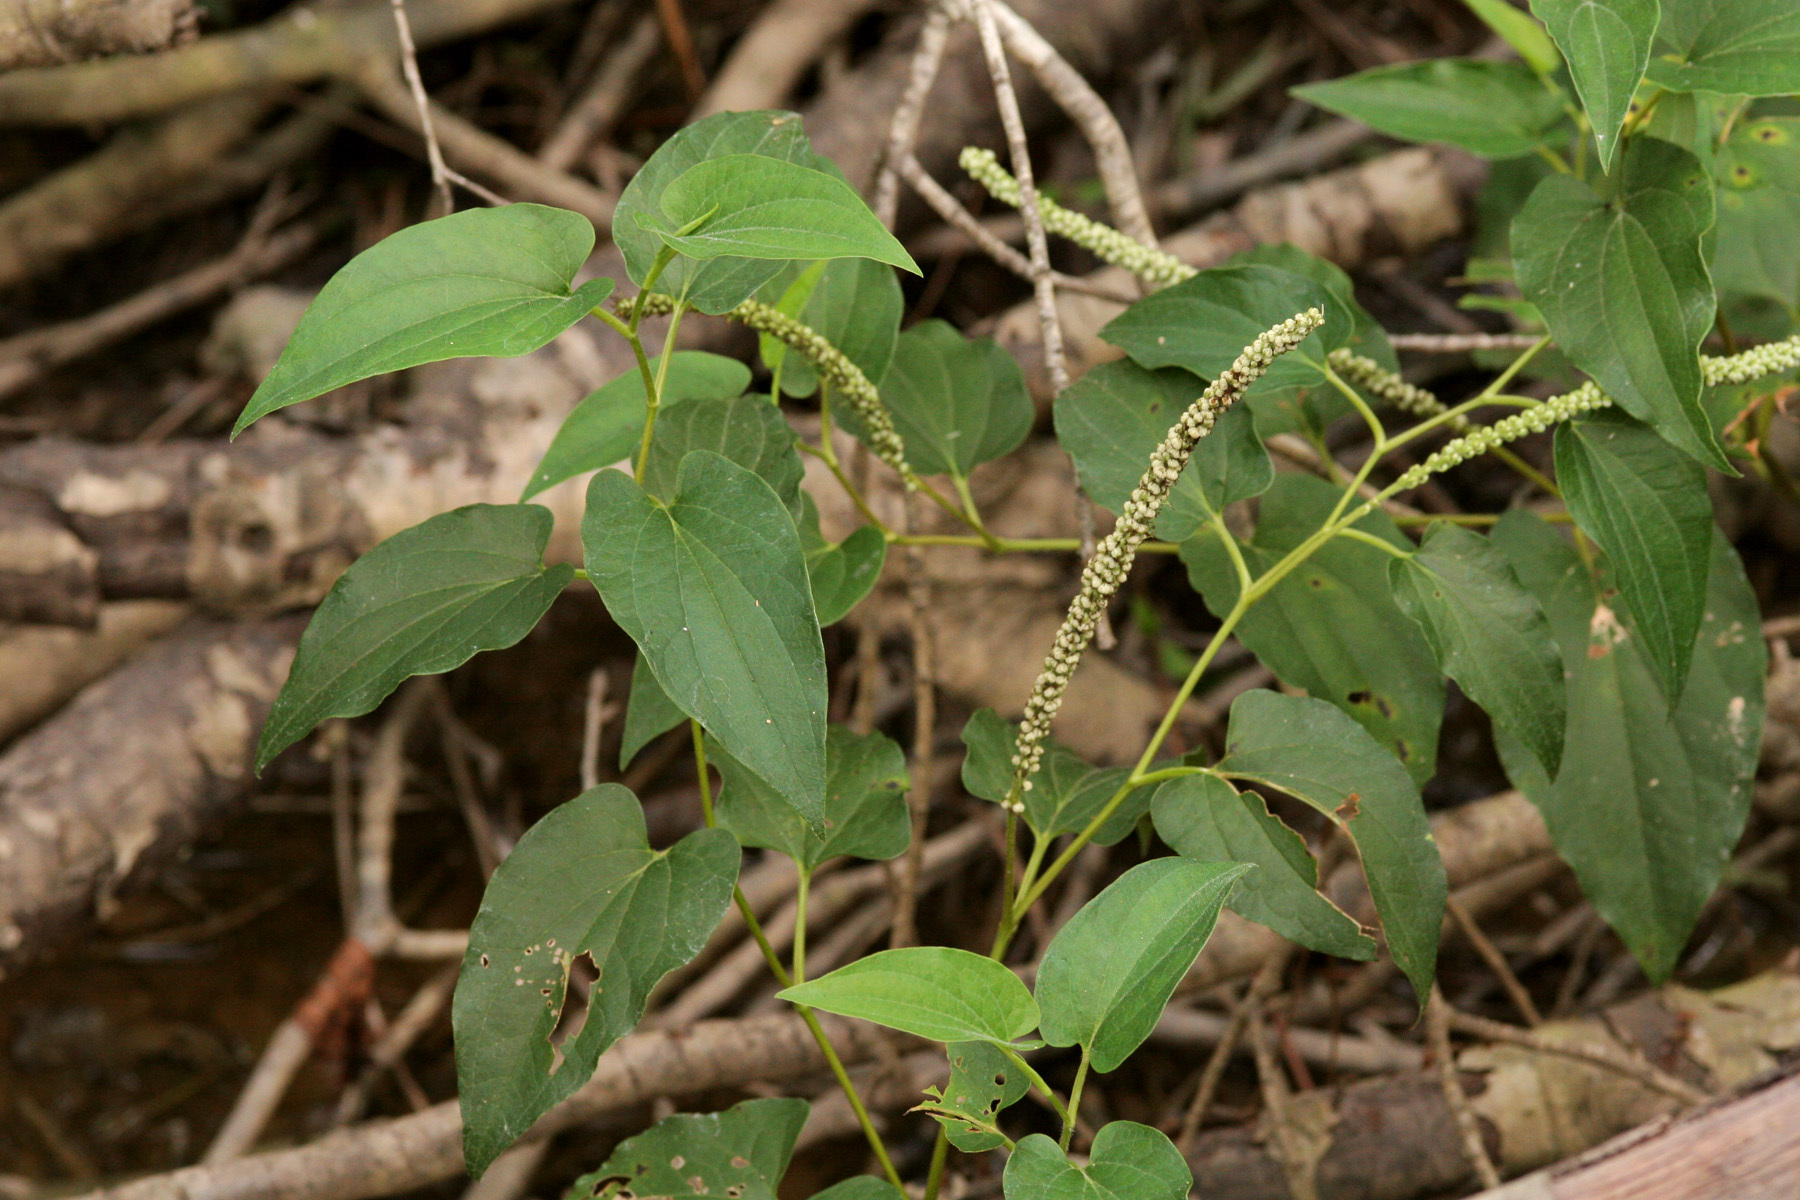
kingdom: Plantae
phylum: Tracheophyta
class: Magnoliopsida
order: Piperales
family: Saururaceae
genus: Saururus
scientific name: Saururus cernuus
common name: Lizard's-tail
